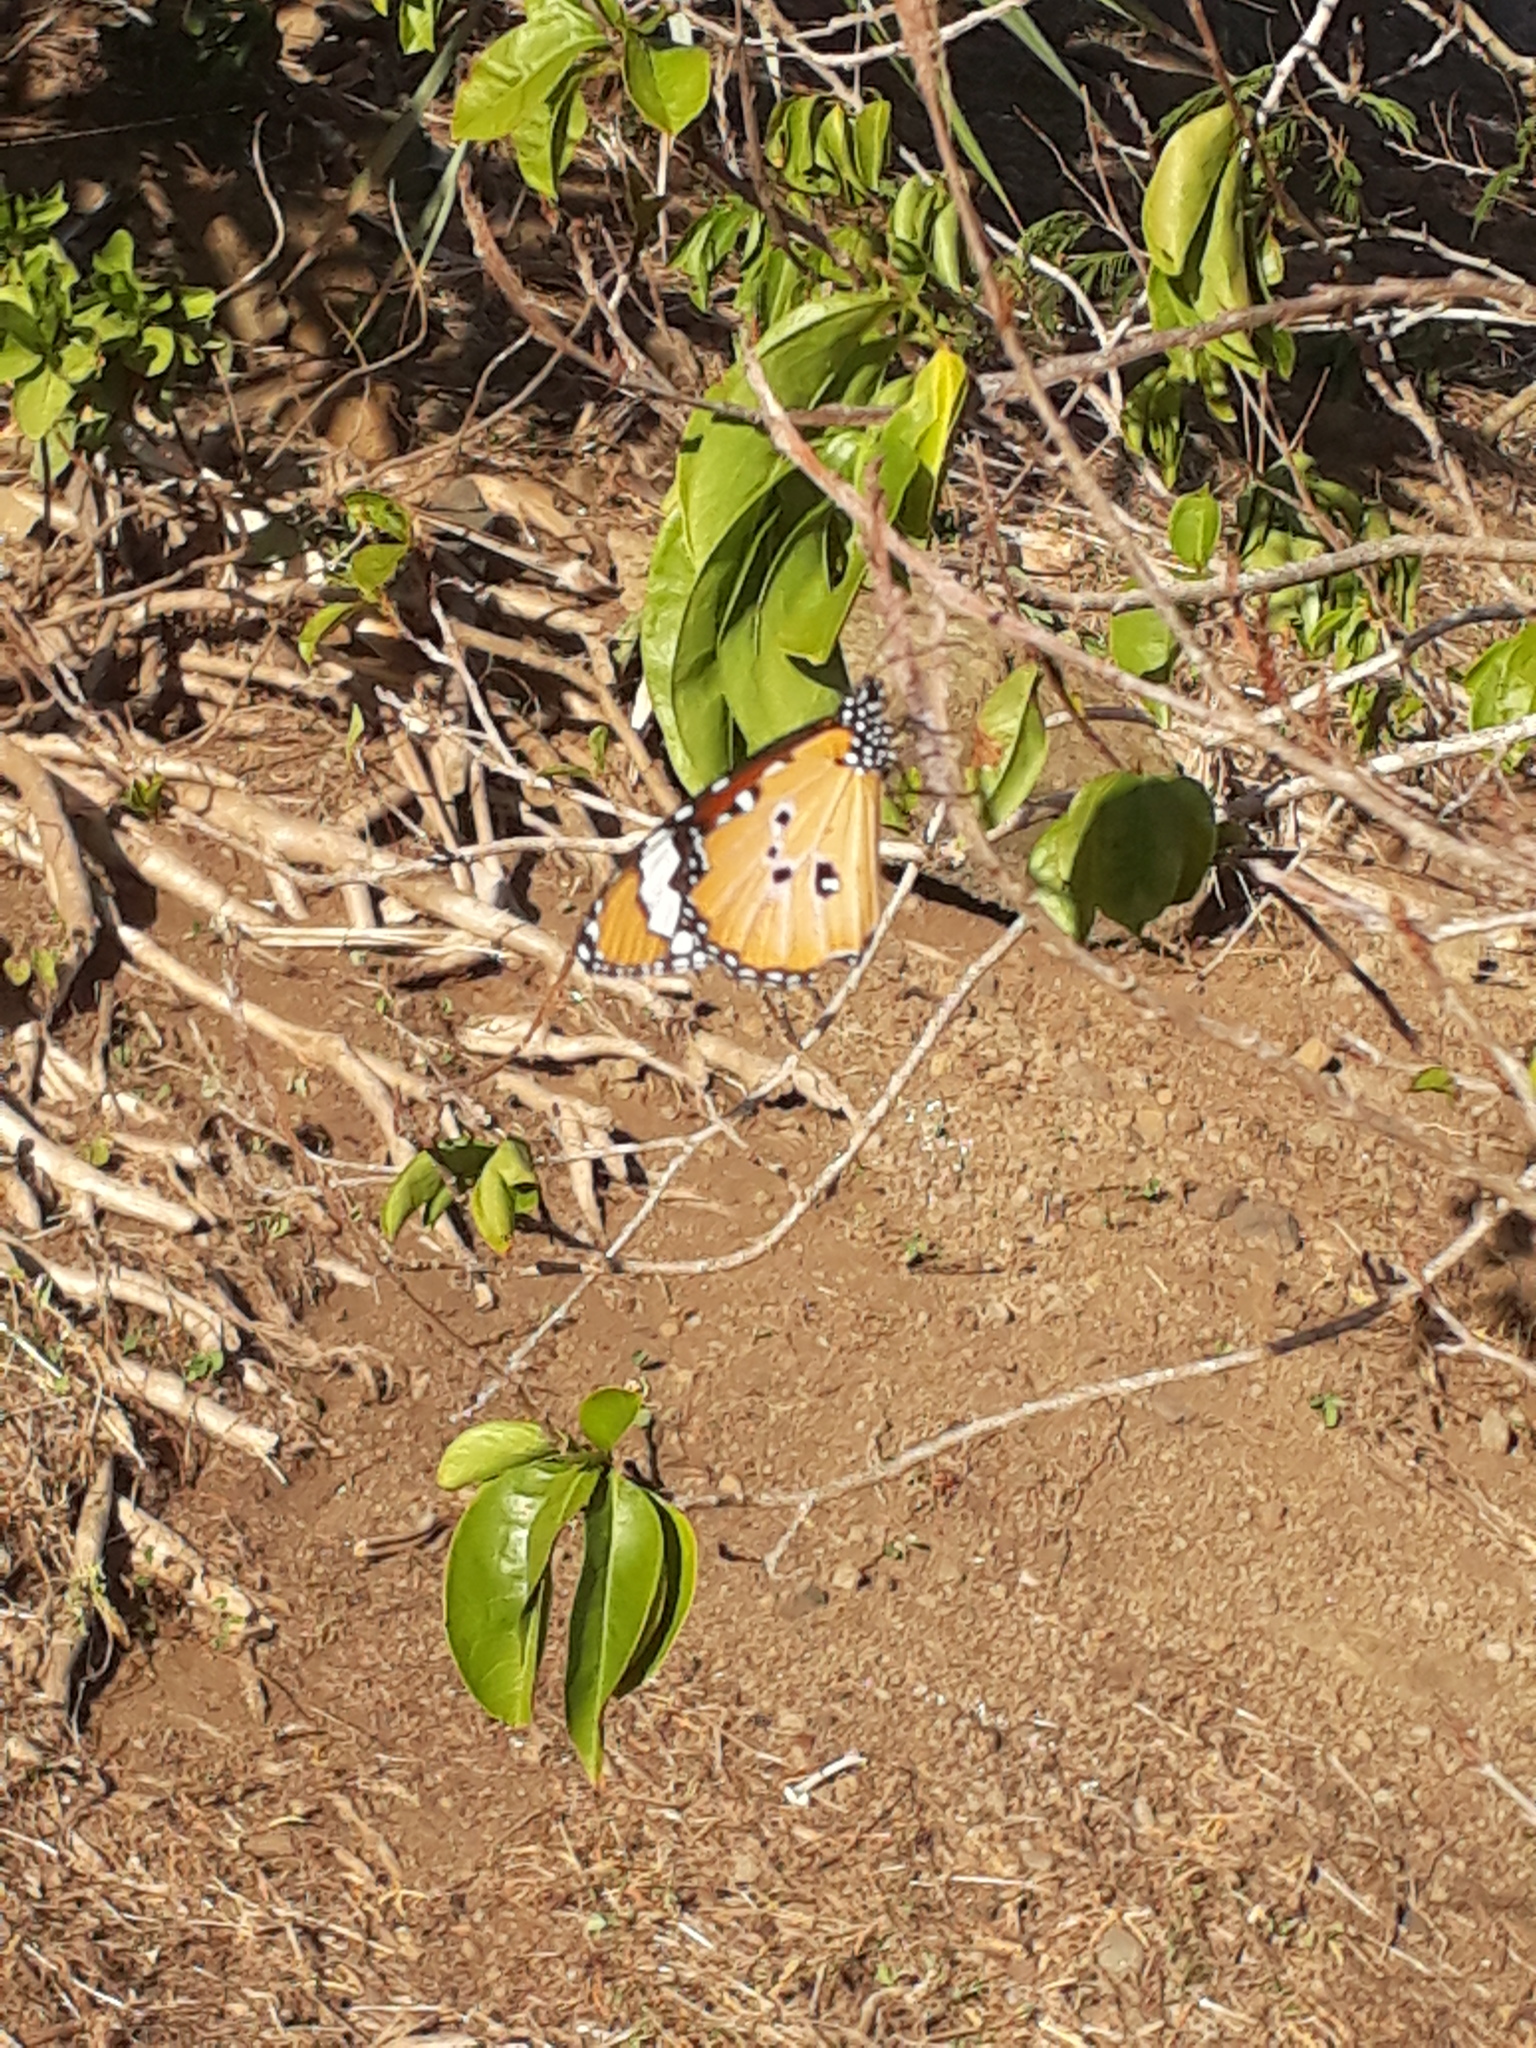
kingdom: Animalia
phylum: Arthropoda
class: Insecta
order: Lepidoptera
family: Nymphalidae
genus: Danaus
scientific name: Danaus chrysippus
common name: Plain tiger
